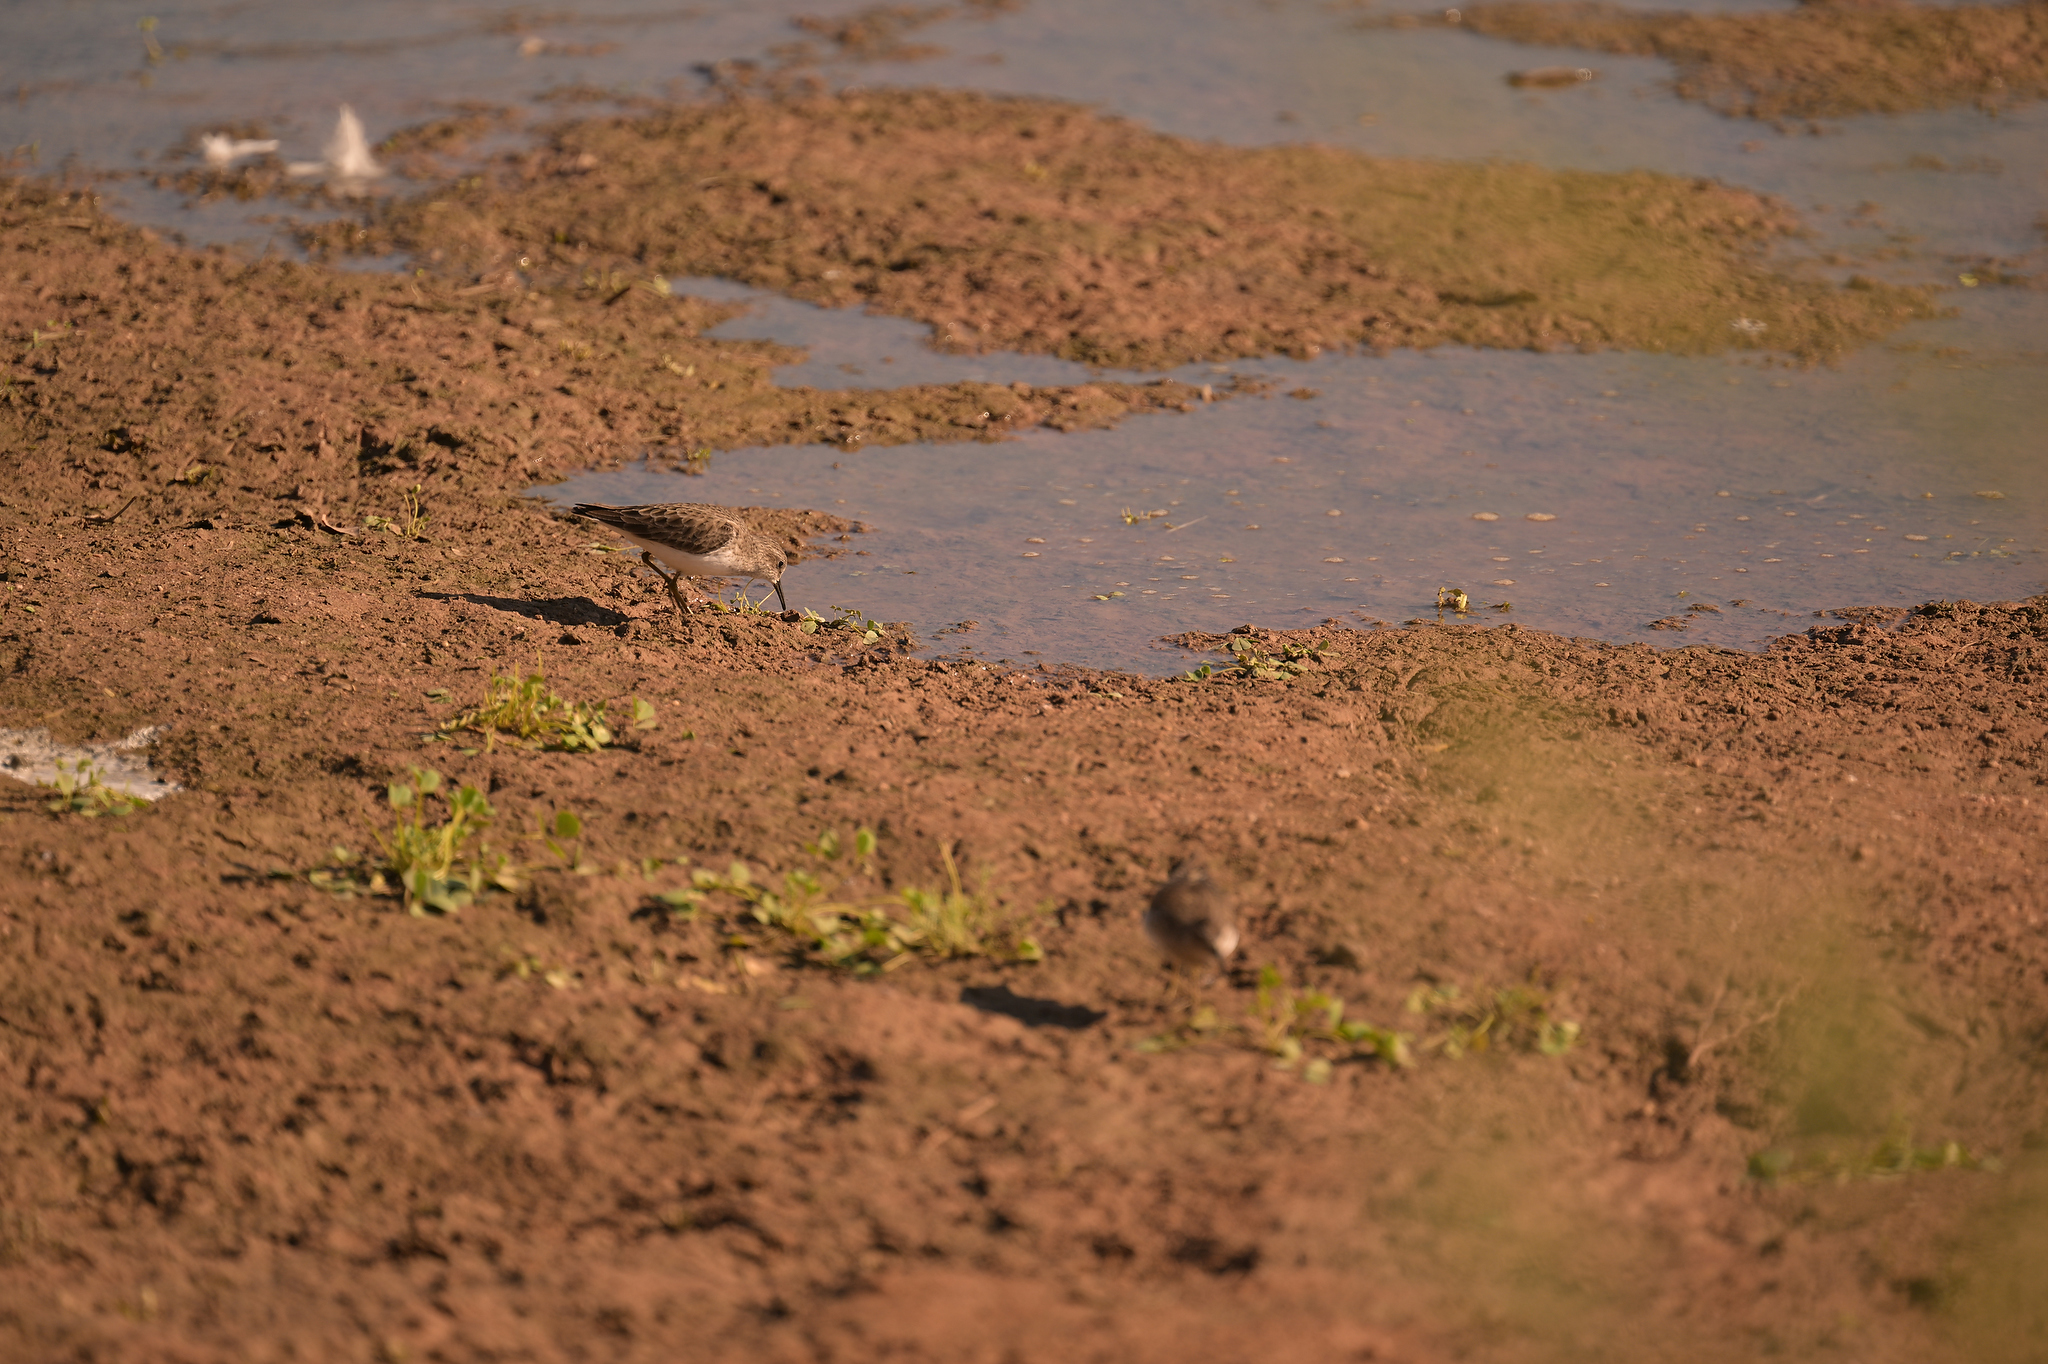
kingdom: Animalia
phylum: Chordata
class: Aves
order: Charadriiformes
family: Scolopacidae
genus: Calidris
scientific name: Calidris minutilla
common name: Least sandpiper
